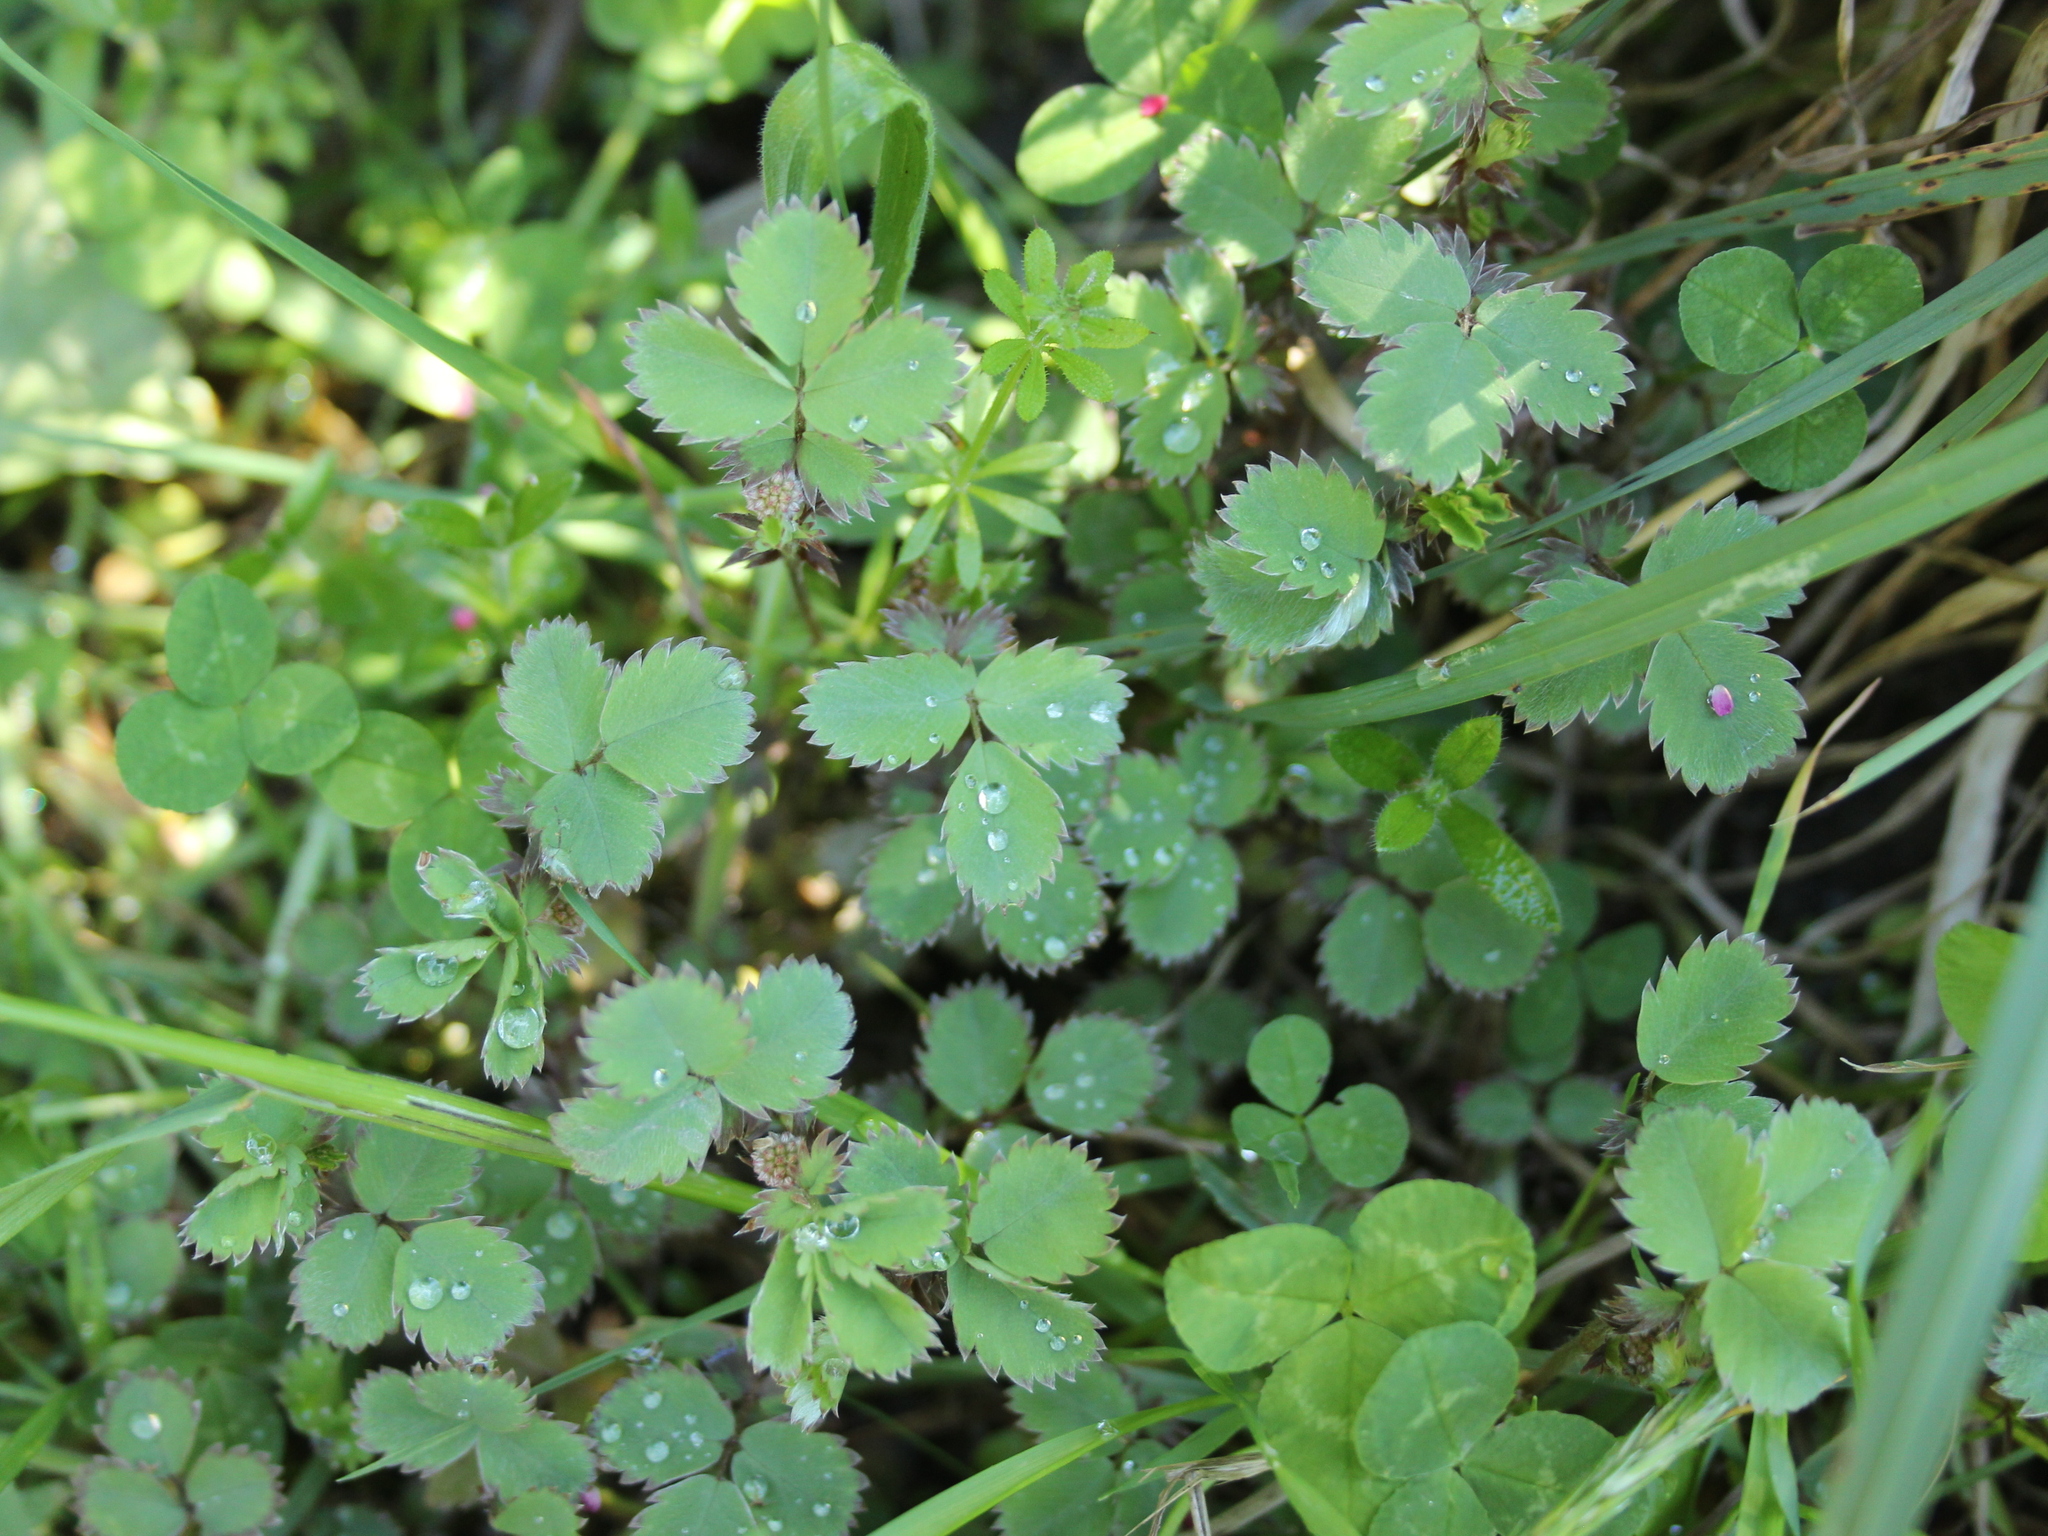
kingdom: Plantae
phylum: Tracheophyta
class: Magnoliopsida
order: Rosales
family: Rosaceae
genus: Acaena
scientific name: Acaena dumicola
